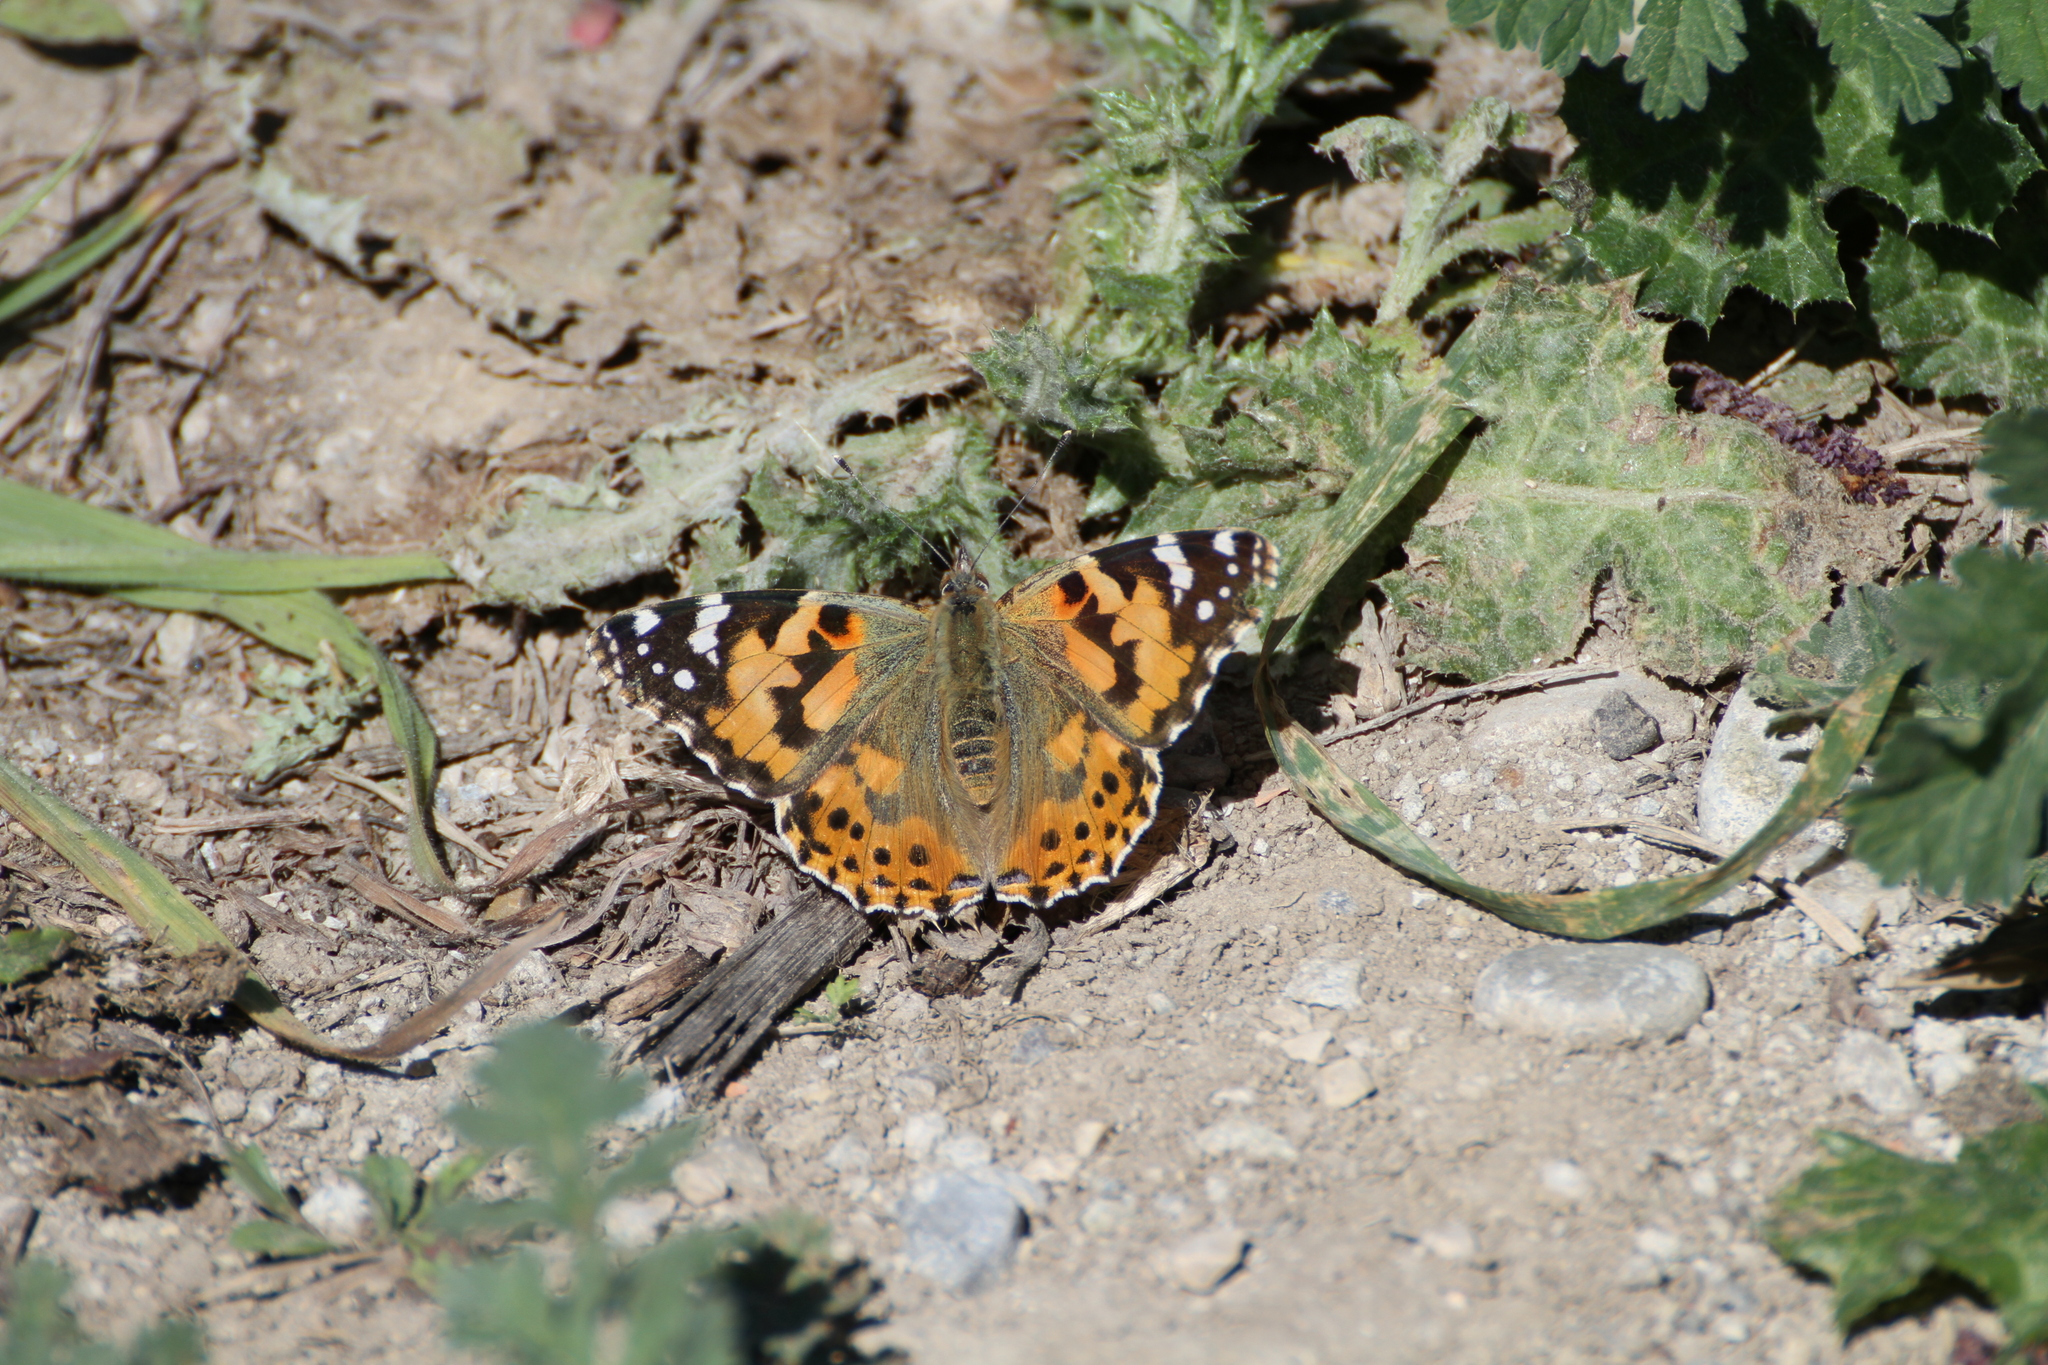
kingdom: Animalia
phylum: Arthropoda
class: Insecta
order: Lepidoptera
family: Nymphalidae
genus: Vanessa
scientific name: Vanessa cardui
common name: Painted lady
